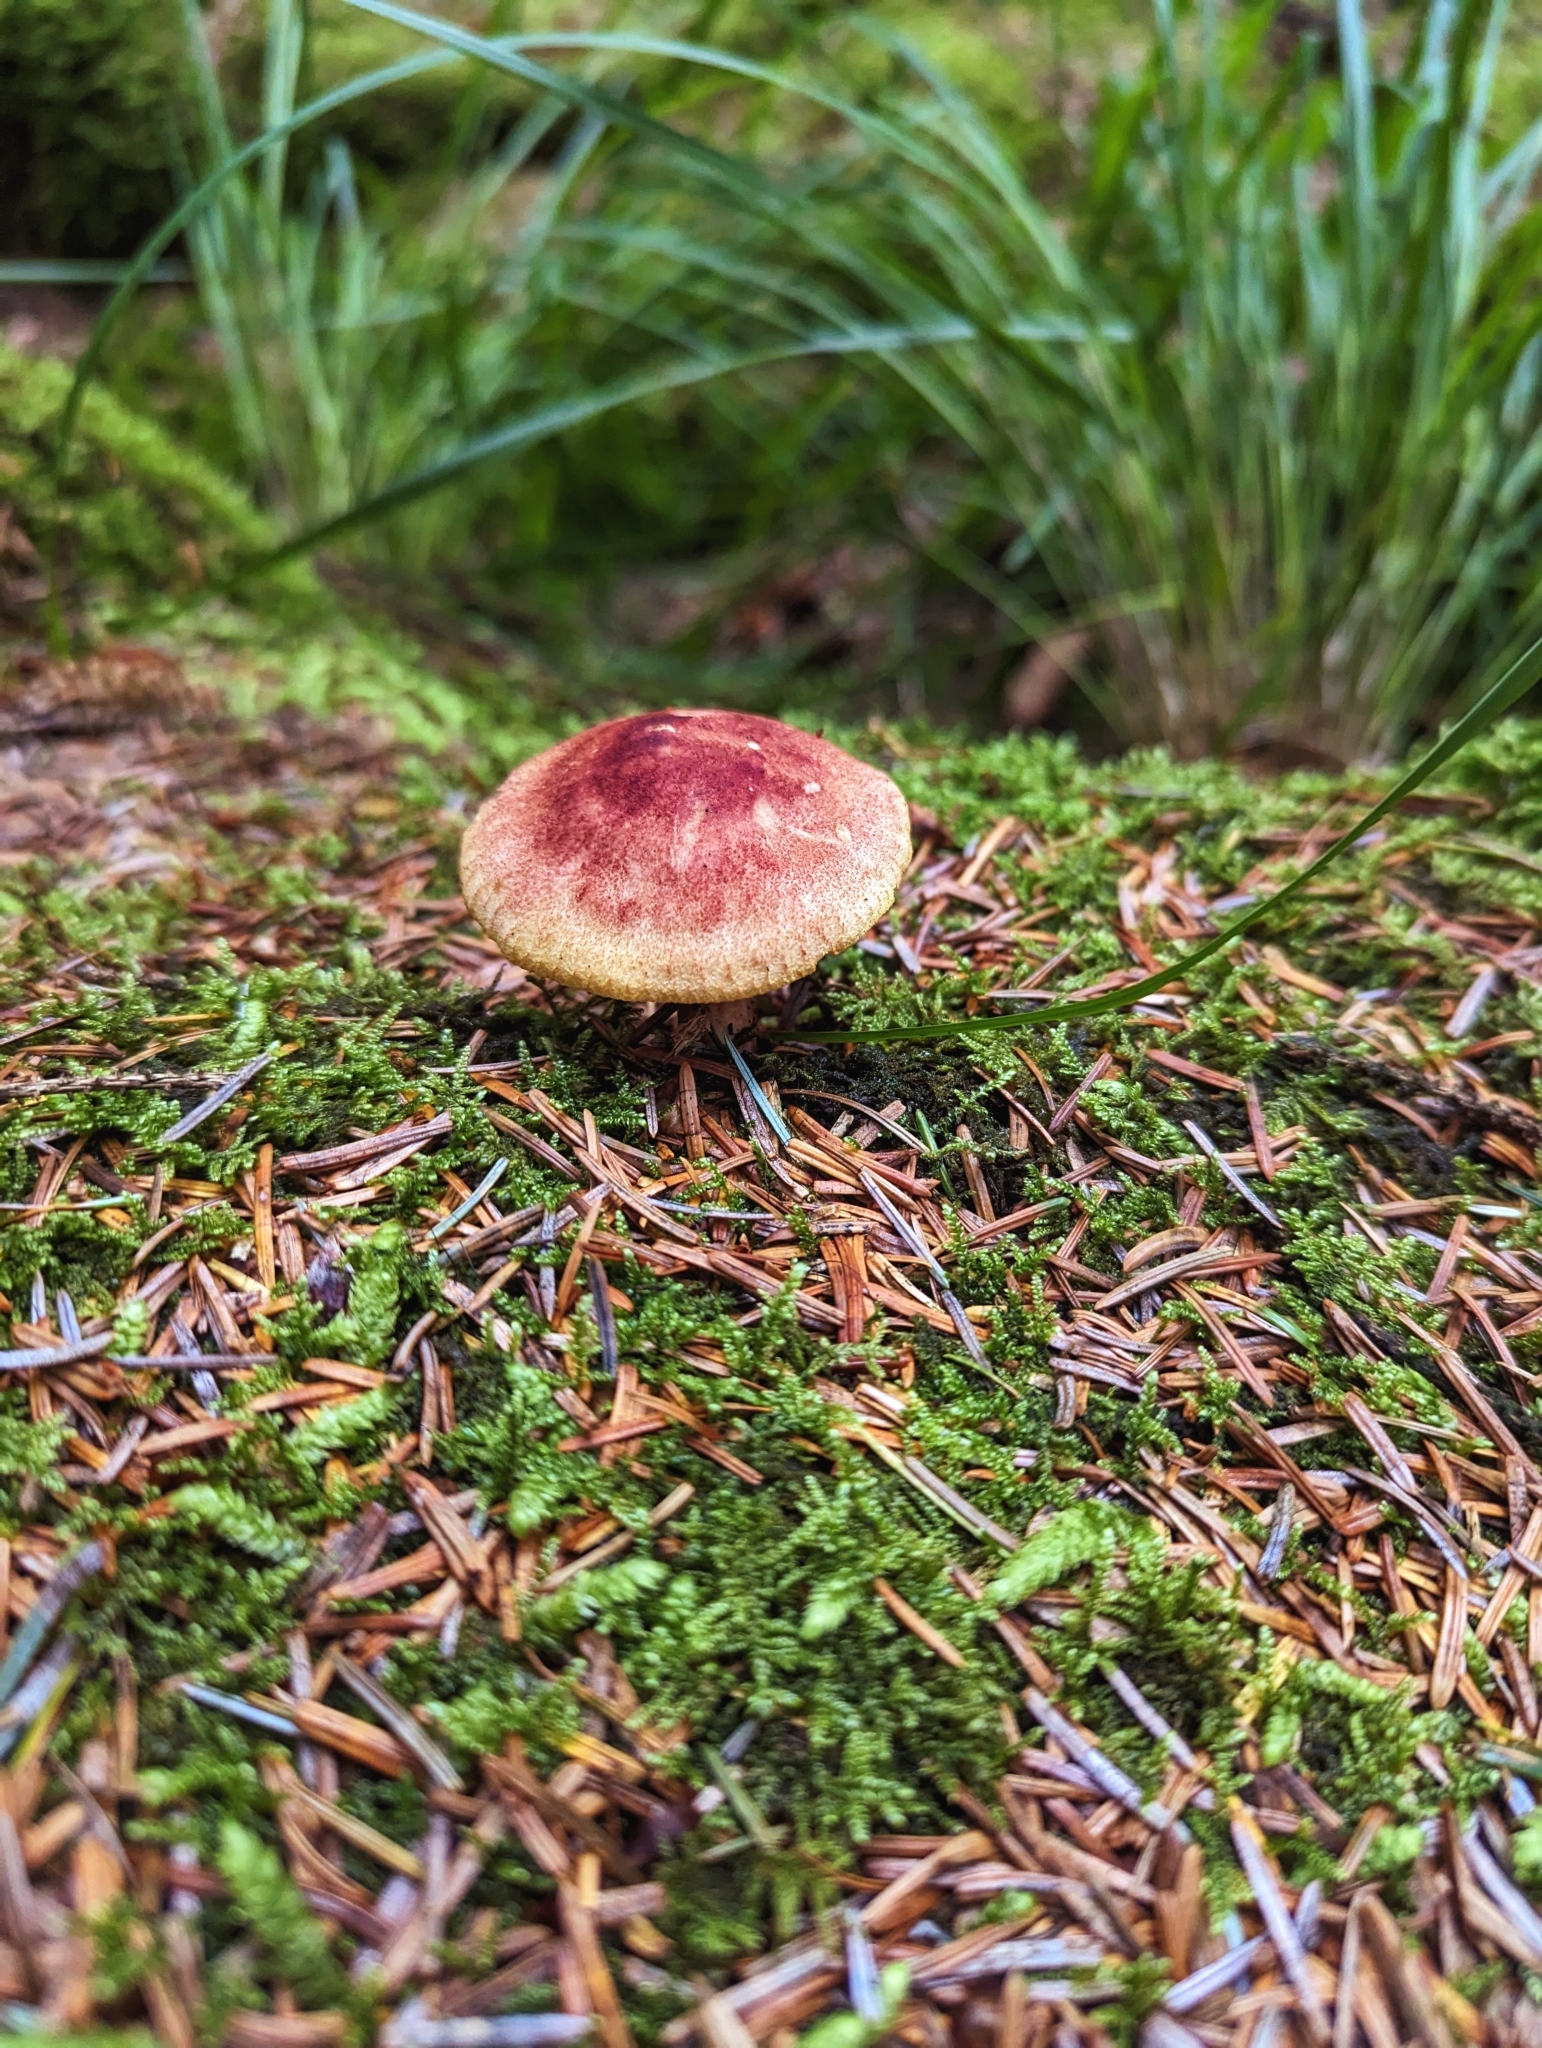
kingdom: Fungi
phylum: Basidiomycota
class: Agaricomycetes
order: Agaricales
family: Tricholomataceae
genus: Tricholomopsis
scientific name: Tricholomopsis rutilans
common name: Plums and custard
